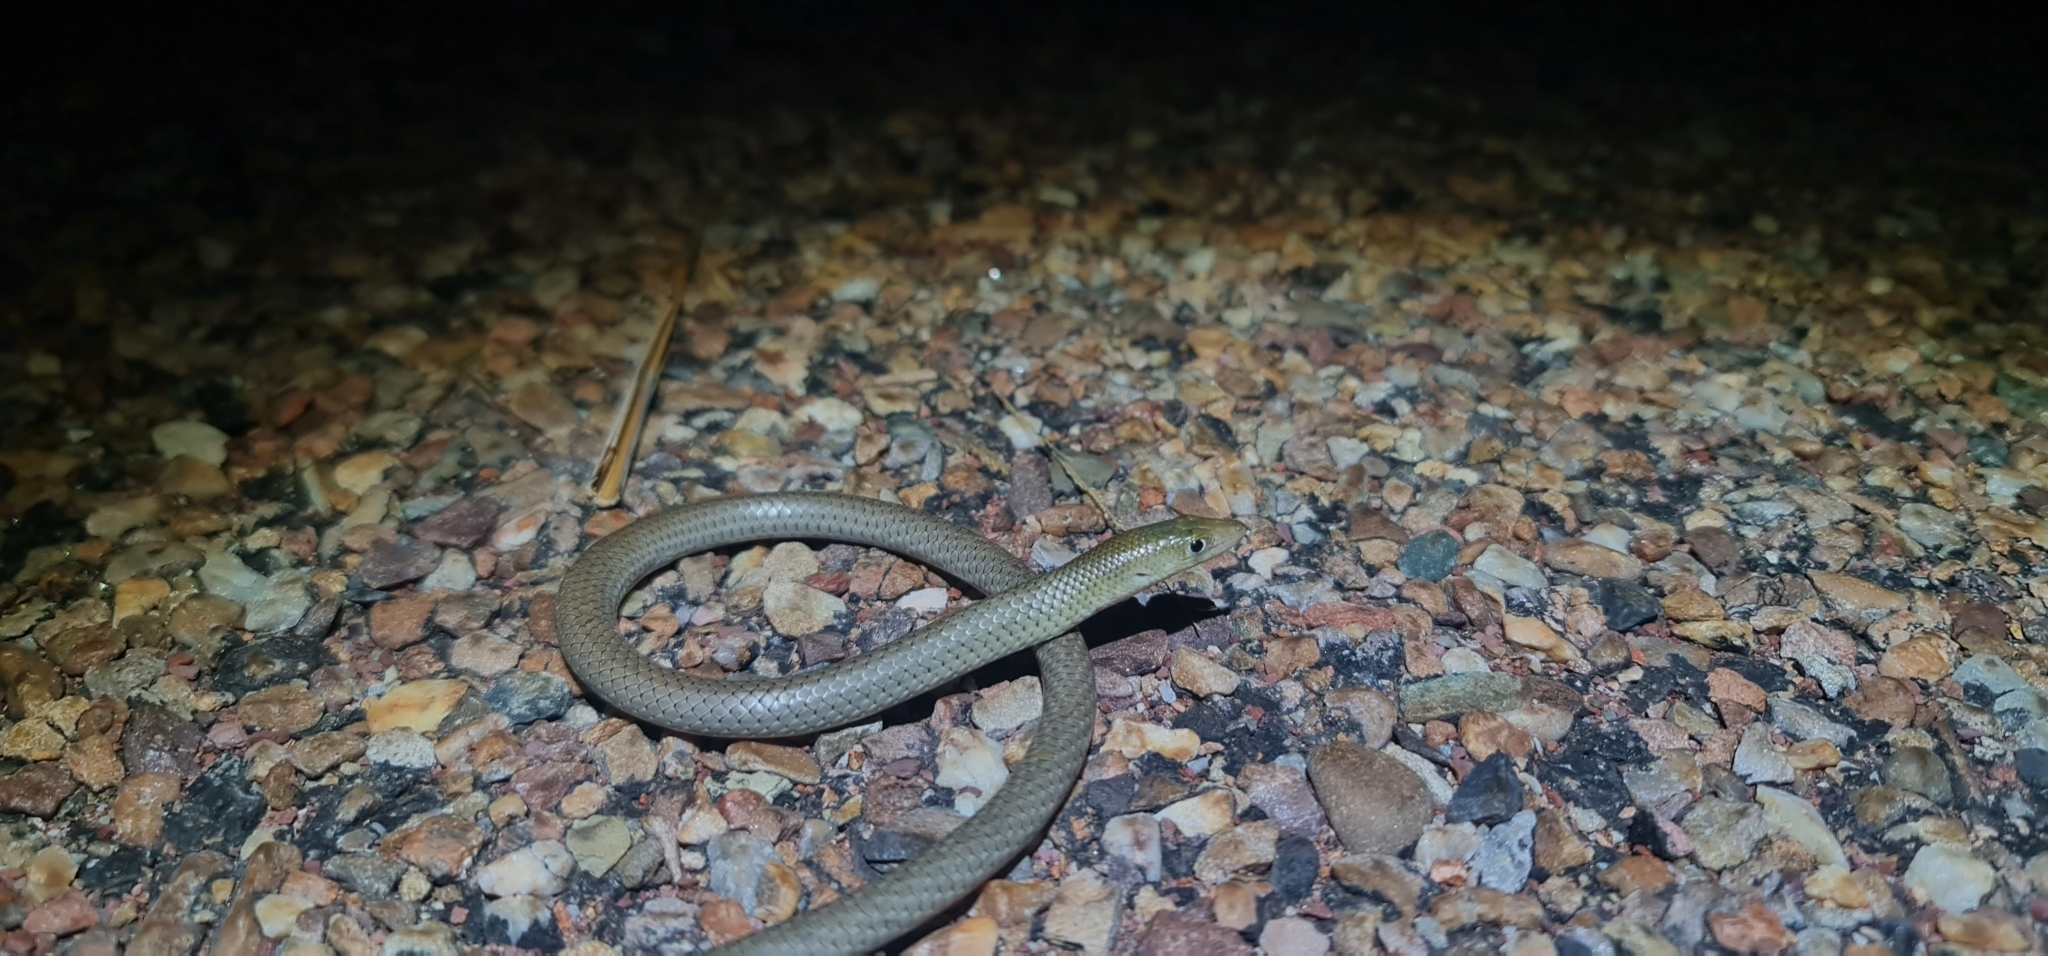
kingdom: Animalia
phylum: Chordata
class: Squamata
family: Pygopodidae
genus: Delma
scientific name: Delma nasuta
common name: Sharp-snouted delma
